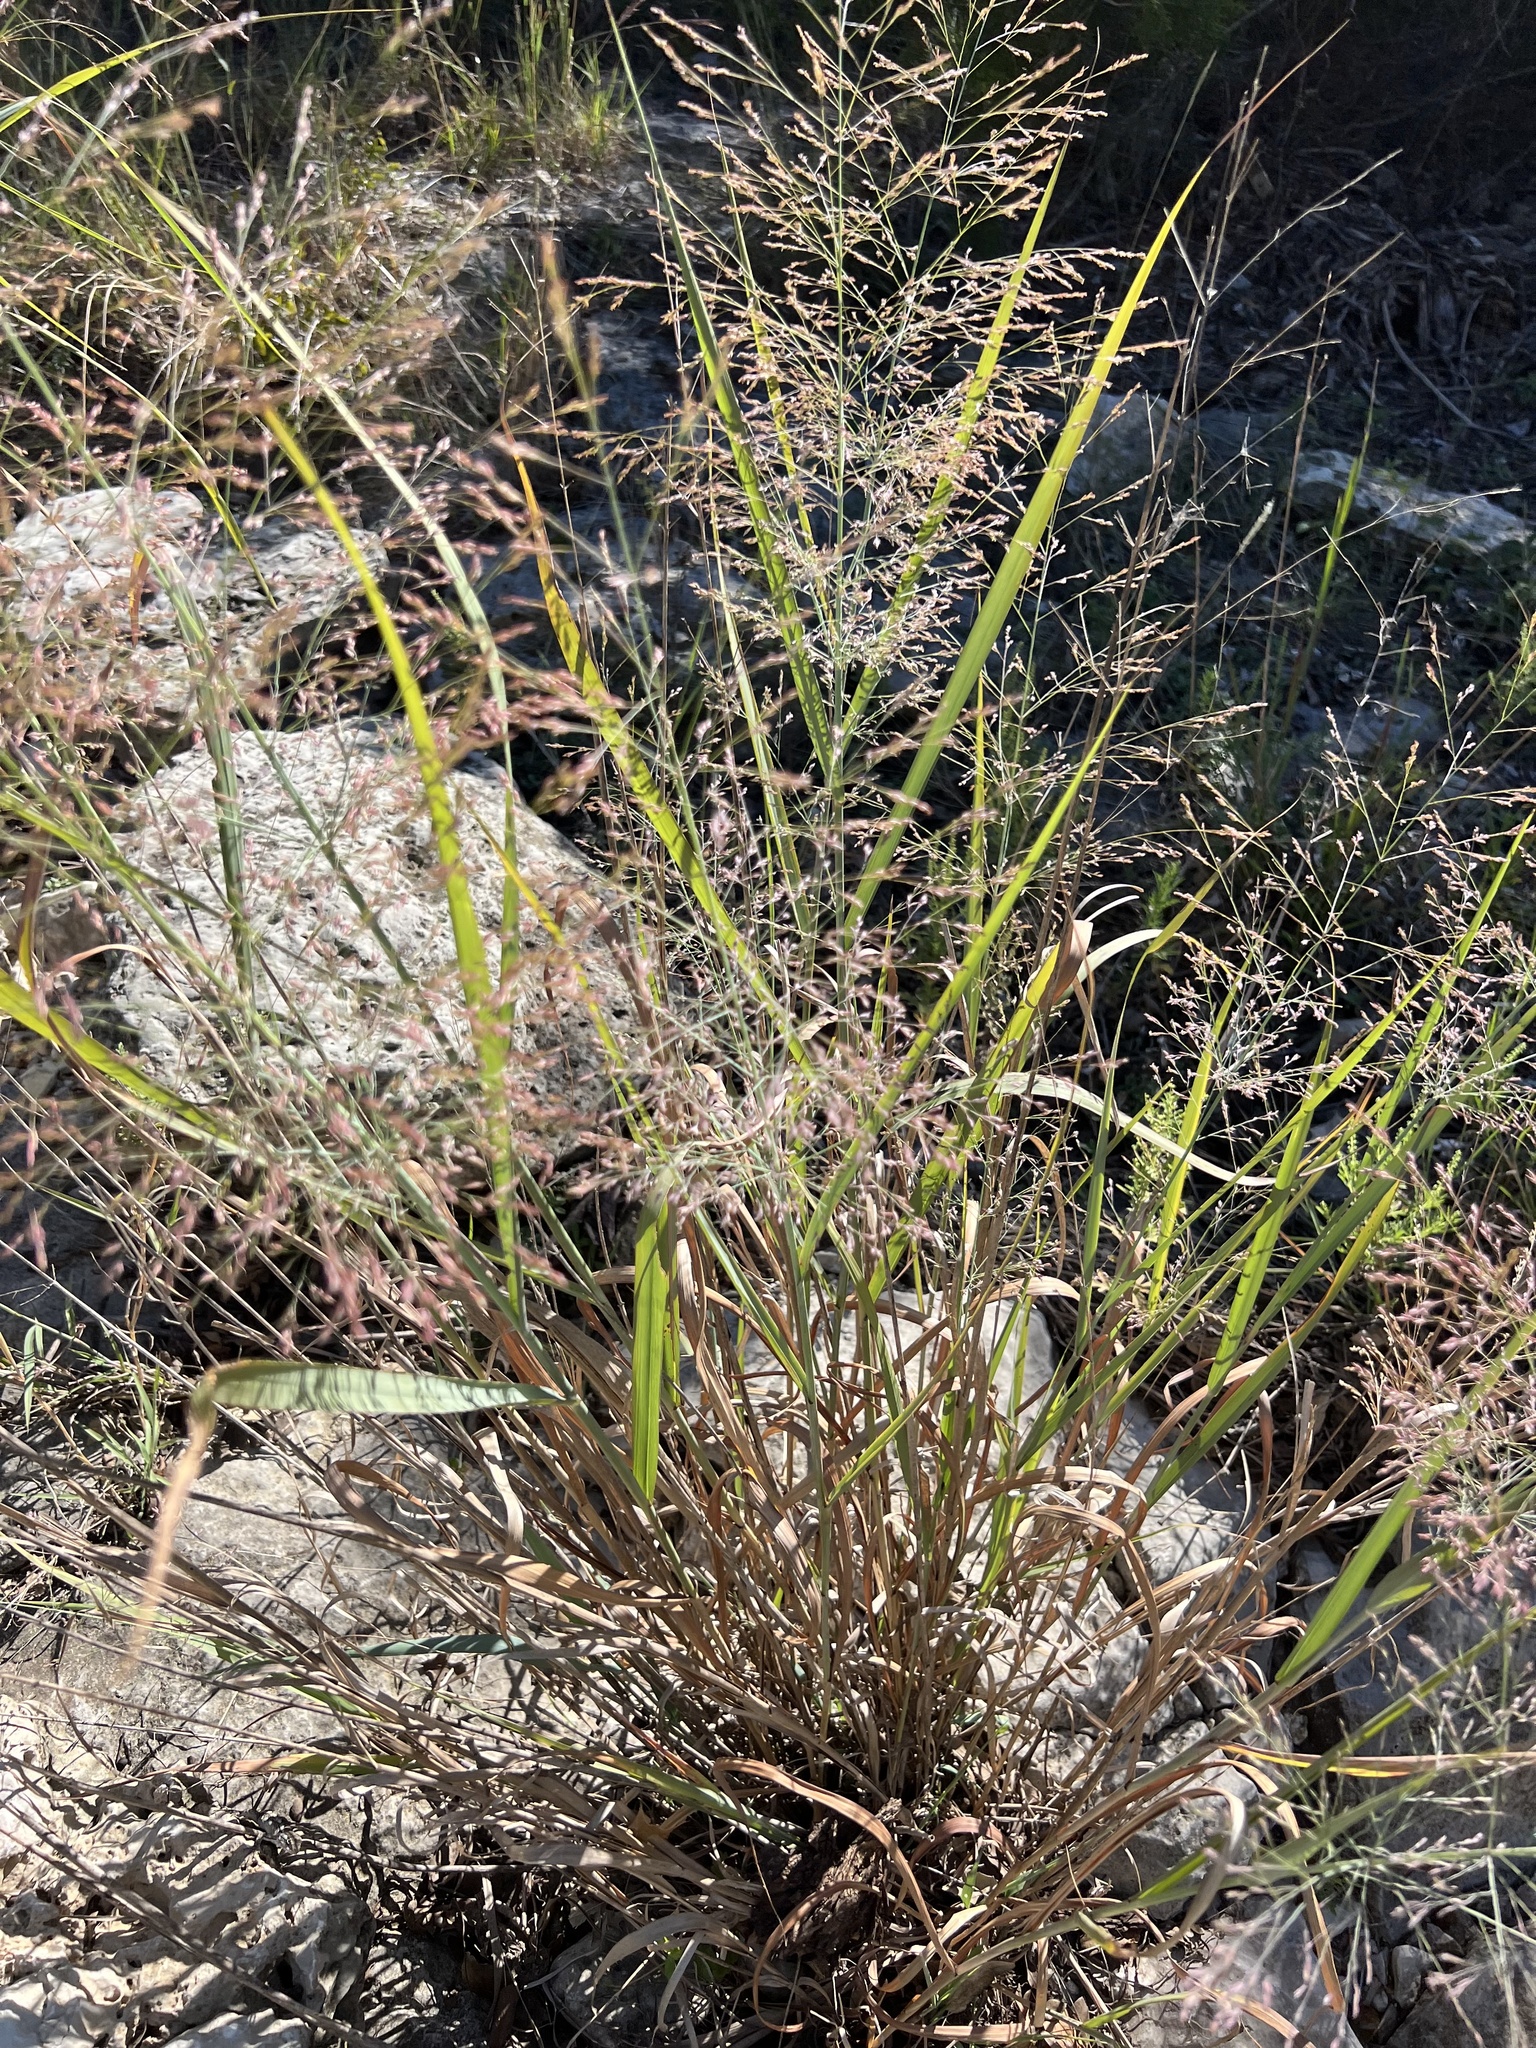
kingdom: Plantae
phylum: Tracheophyta
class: Liliopsida
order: Poales
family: Poaceae
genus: Panicum
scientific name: Panicum virgatum
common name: Switchgrass
